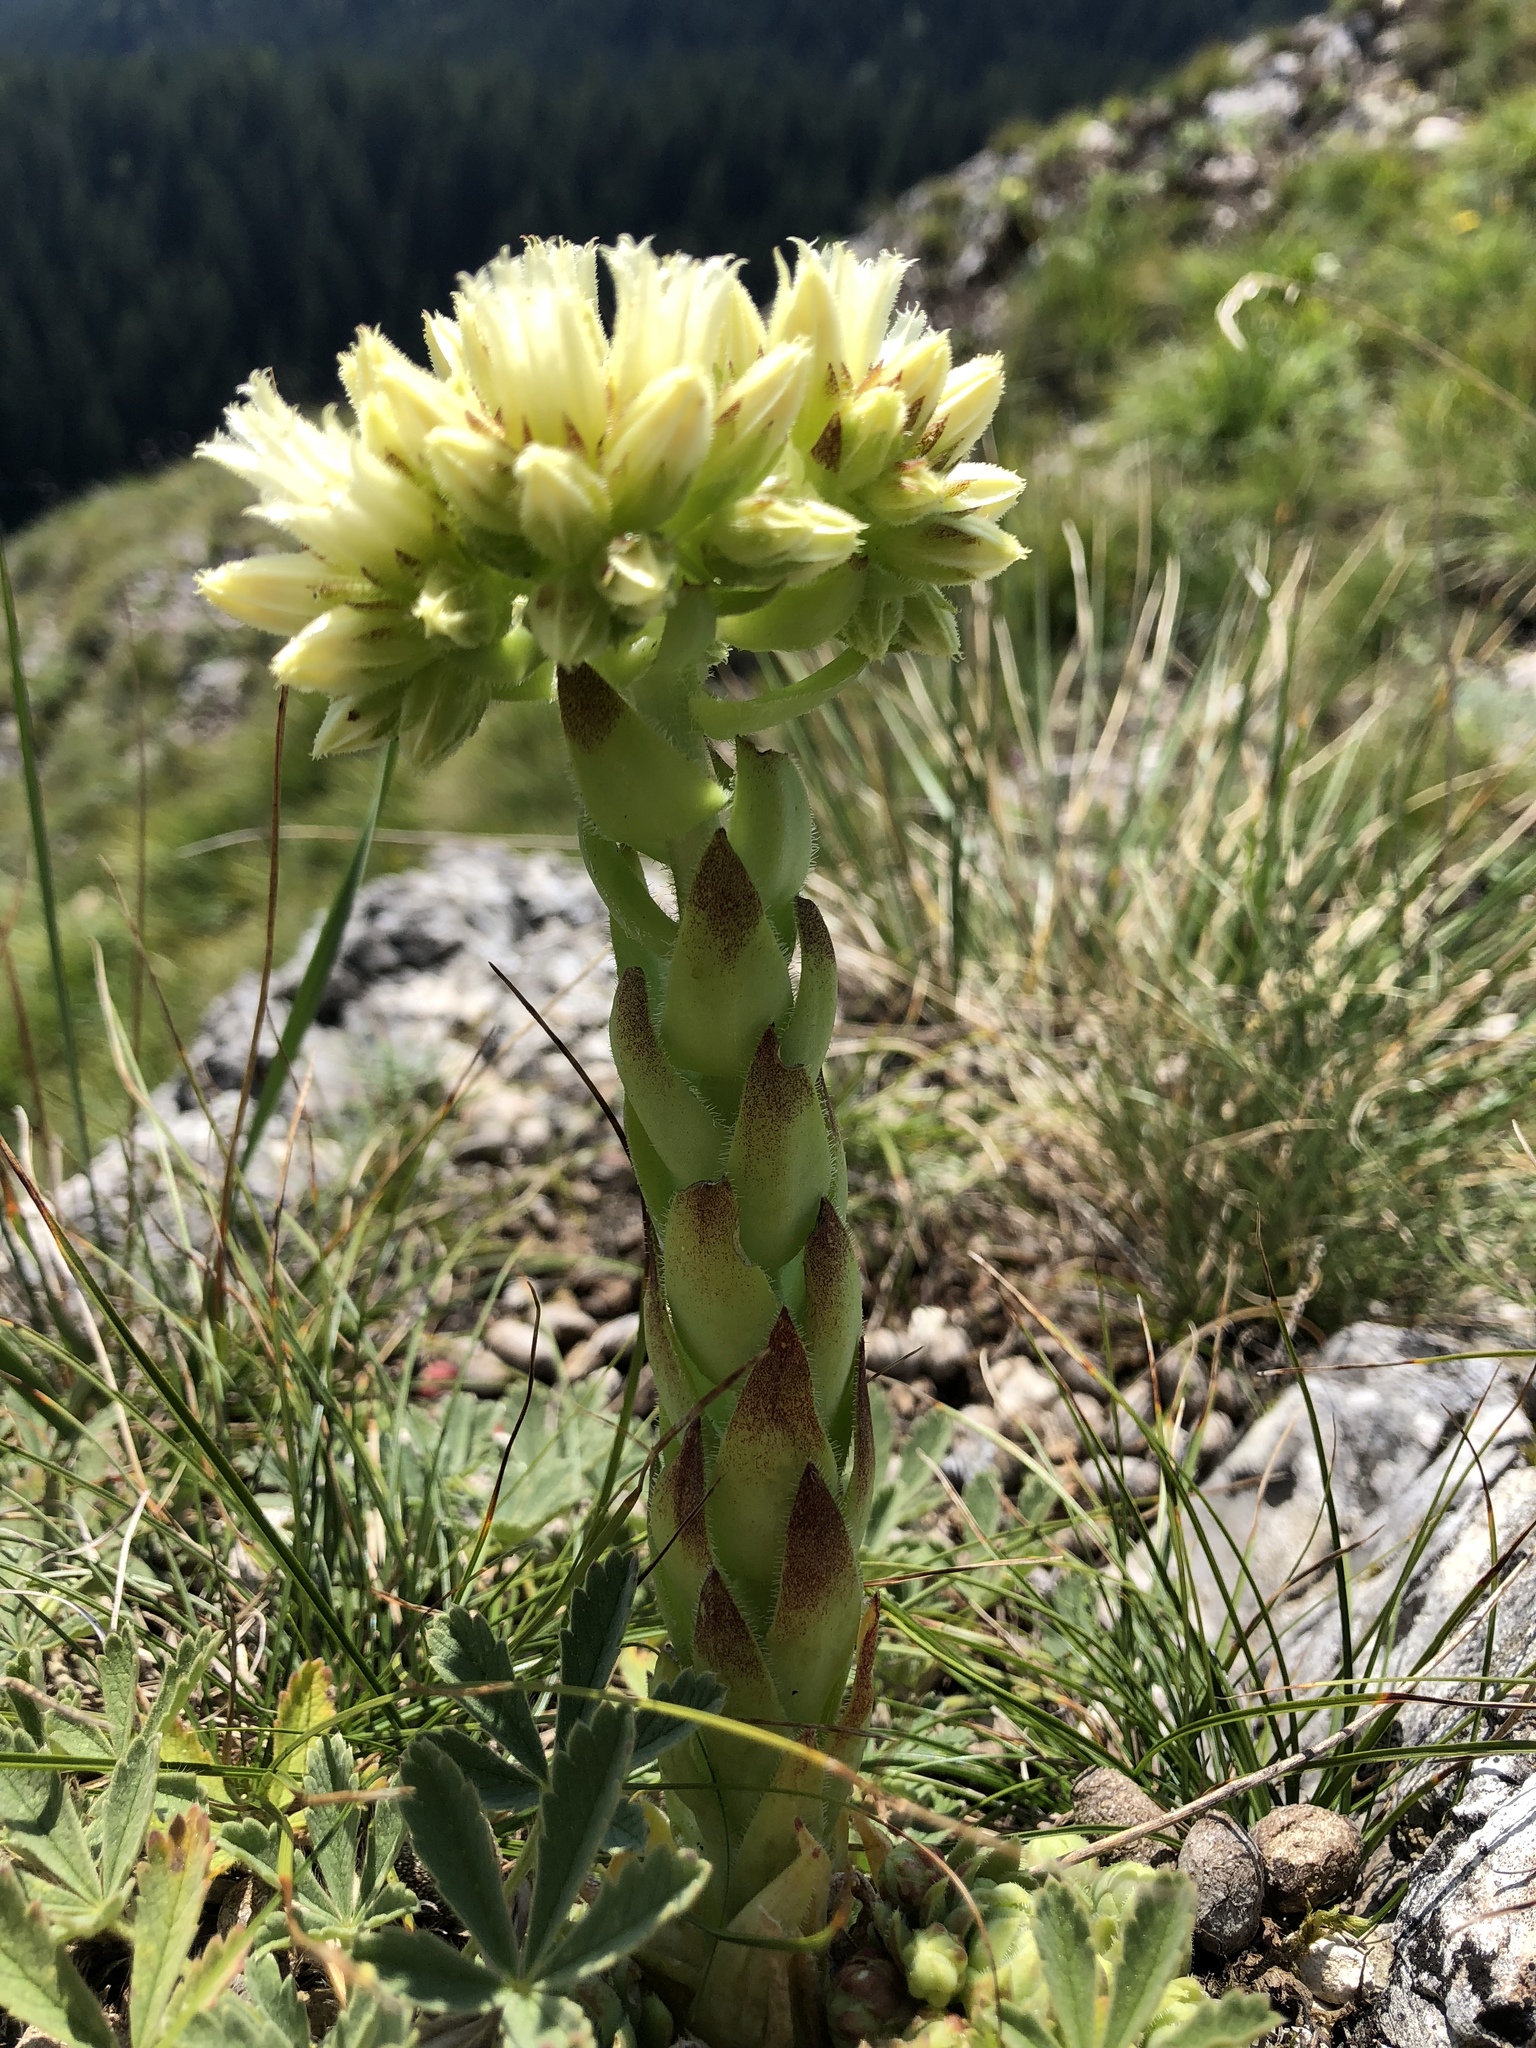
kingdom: Plantae
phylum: Tracheophyta
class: Magnoliopsida
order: Saxifragales
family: Crassulaceae
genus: Sempervivum
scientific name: Sempervivum globiferum
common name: Rolling hen-and-chicks
